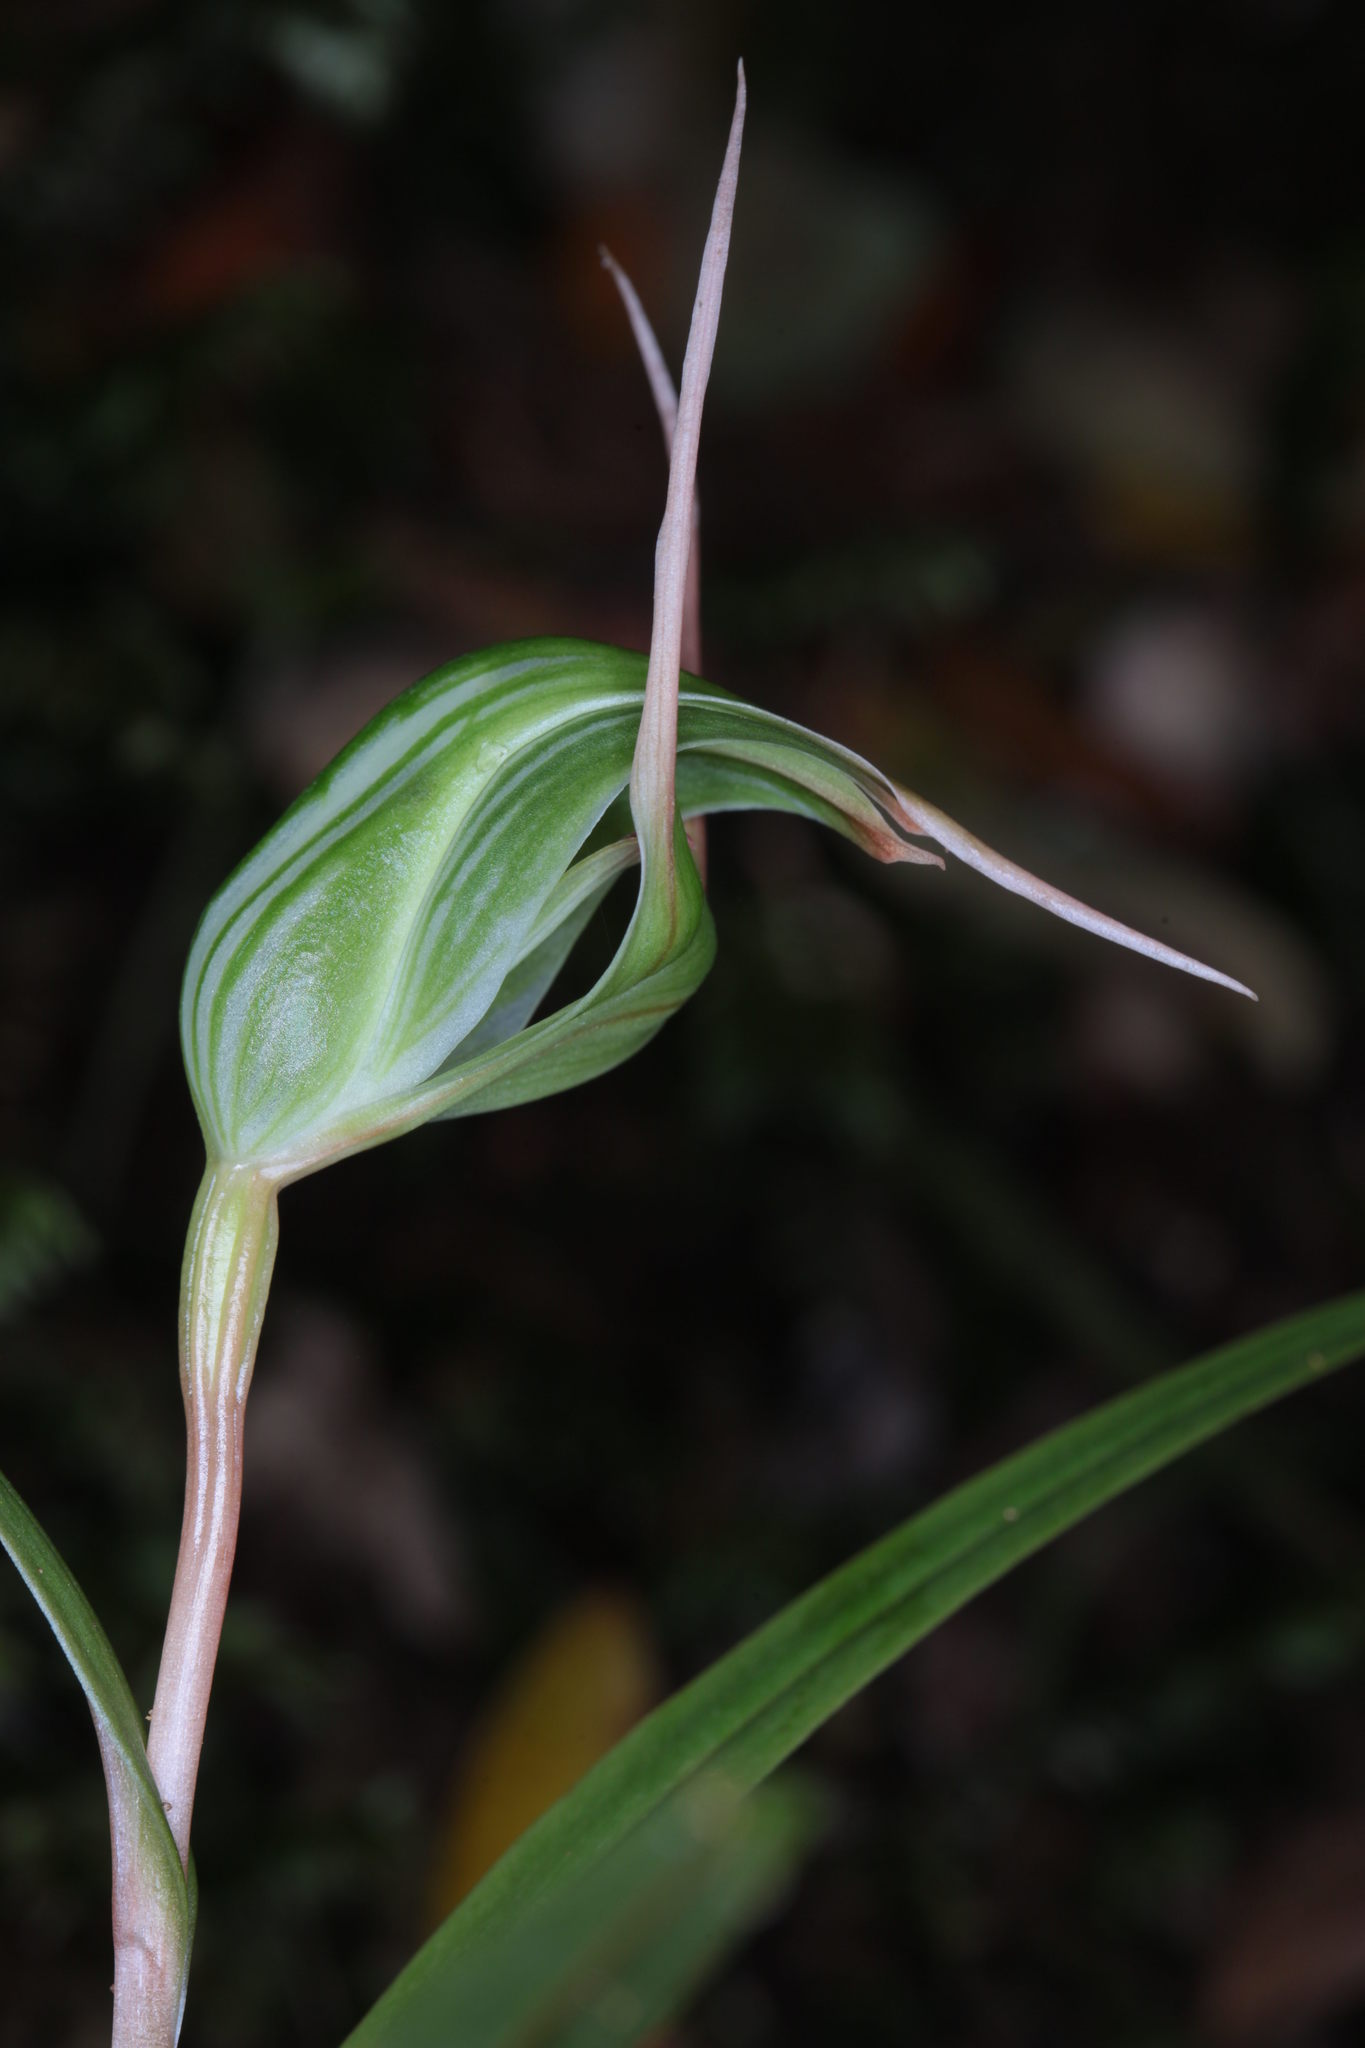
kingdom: Plantae
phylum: Tracheophyta
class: Liliopsida
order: Asparagales
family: Orchidaceae
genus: Pterostylis
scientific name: Pterostylis banksii
